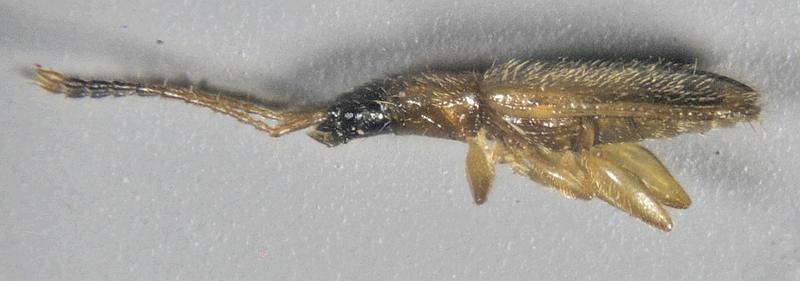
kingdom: Animalia
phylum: Arthropoda
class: Insecta
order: Coleoptera
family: Silvanidae
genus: Telephanus
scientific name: Telephanus velox
